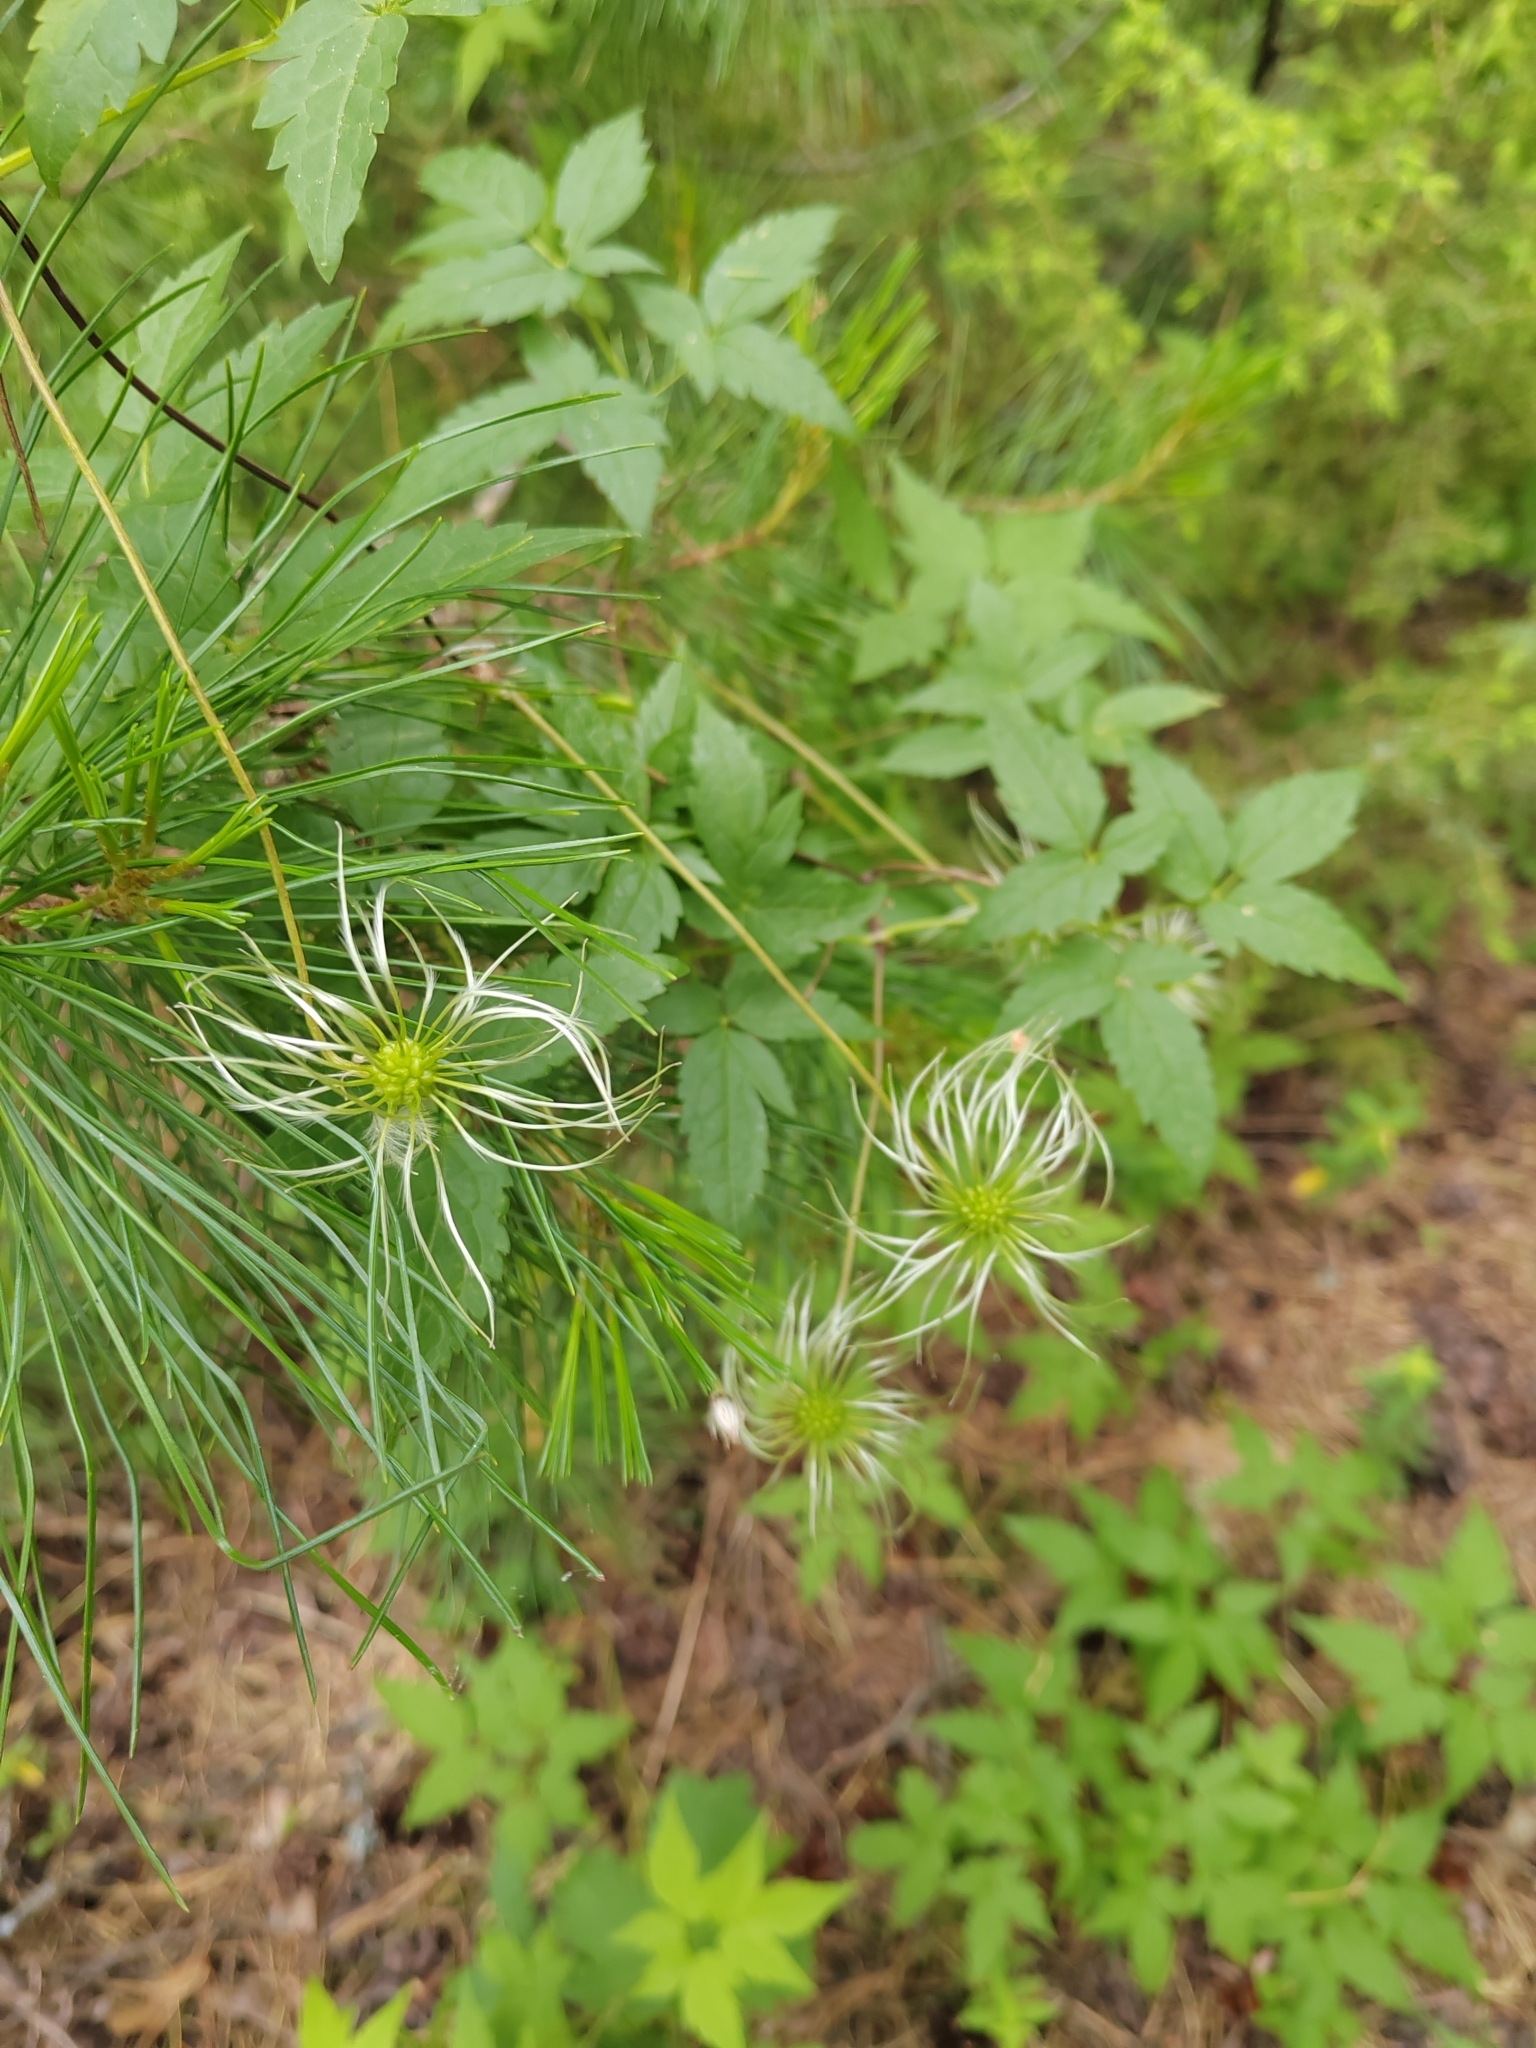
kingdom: Plantae
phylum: Tracheophyta
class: Magnoliopsida
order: Ranunculales
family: Ranunculaceae
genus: Clematis
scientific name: Clematis sibirica
